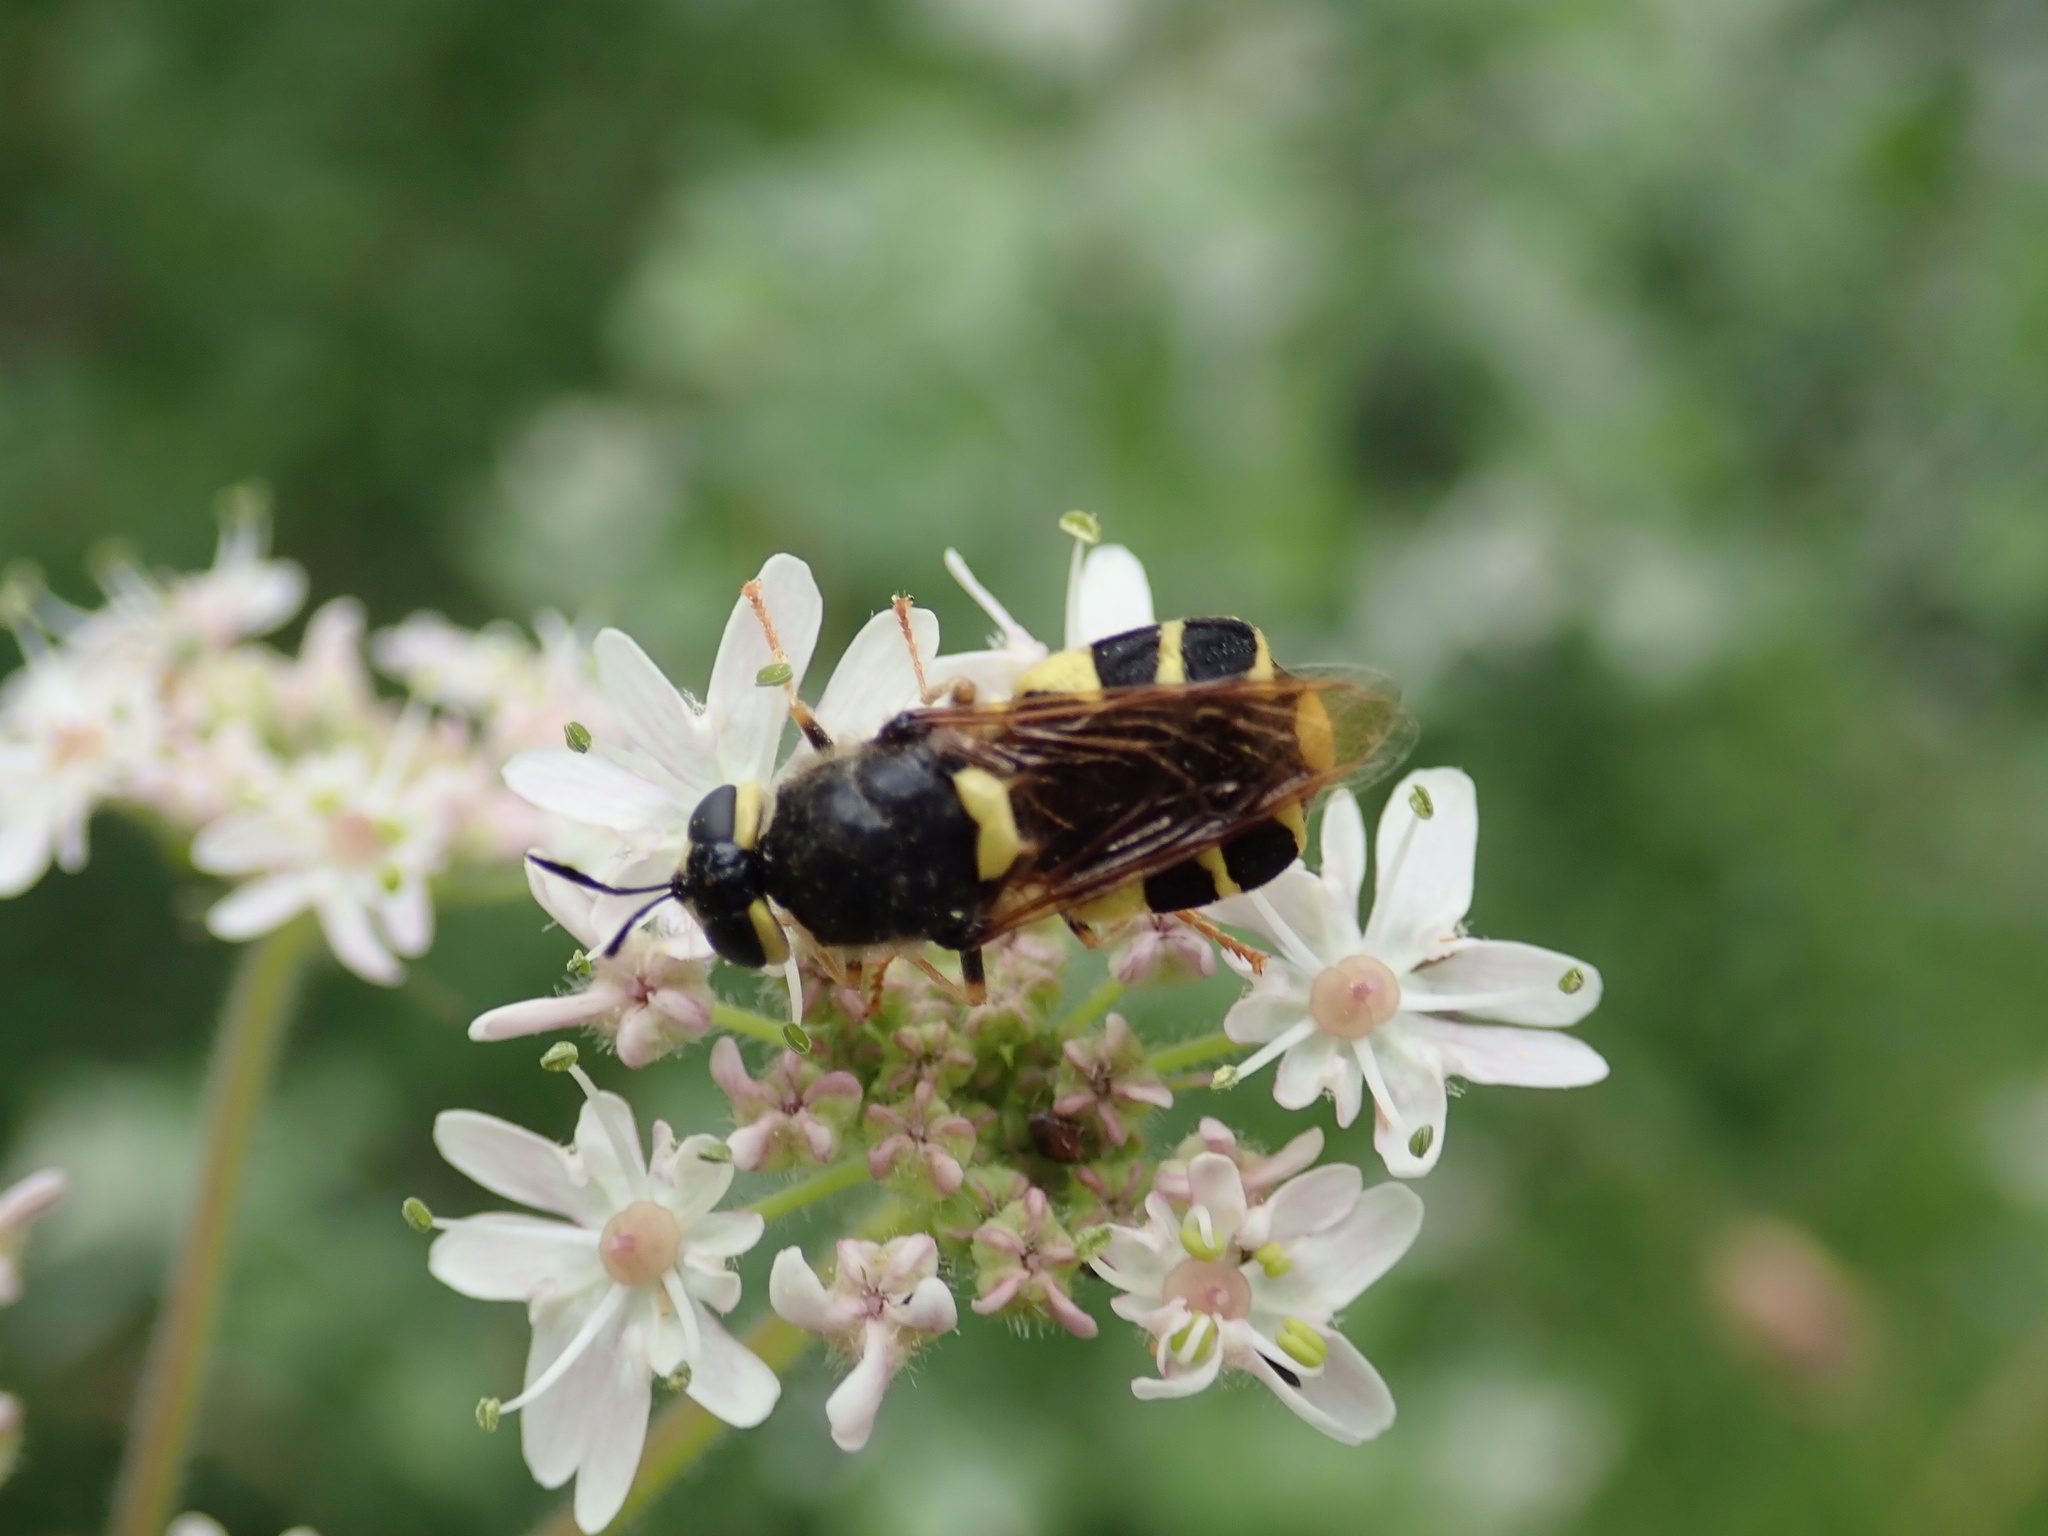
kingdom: Animalia
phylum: Arthropoda
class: Insecta
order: Diptera
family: Stratiomyidae
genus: Stratiomys
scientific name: Stratiomys chamaeleon
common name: Clubbed general
